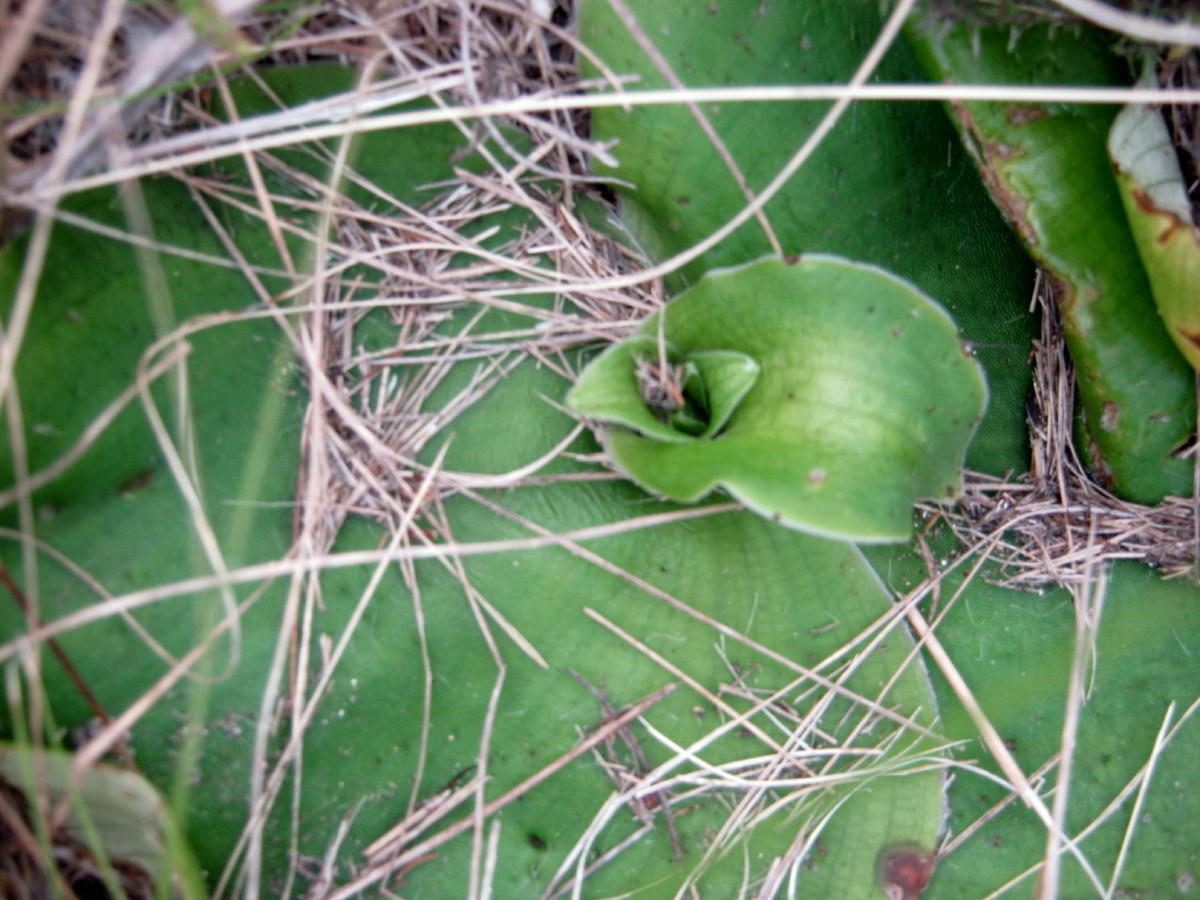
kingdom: Plantae
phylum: Tracheophyta
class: Liliopsida
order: Asparagales
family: Orchidaceae
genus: Satyrium
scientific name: Satyrium princeps
